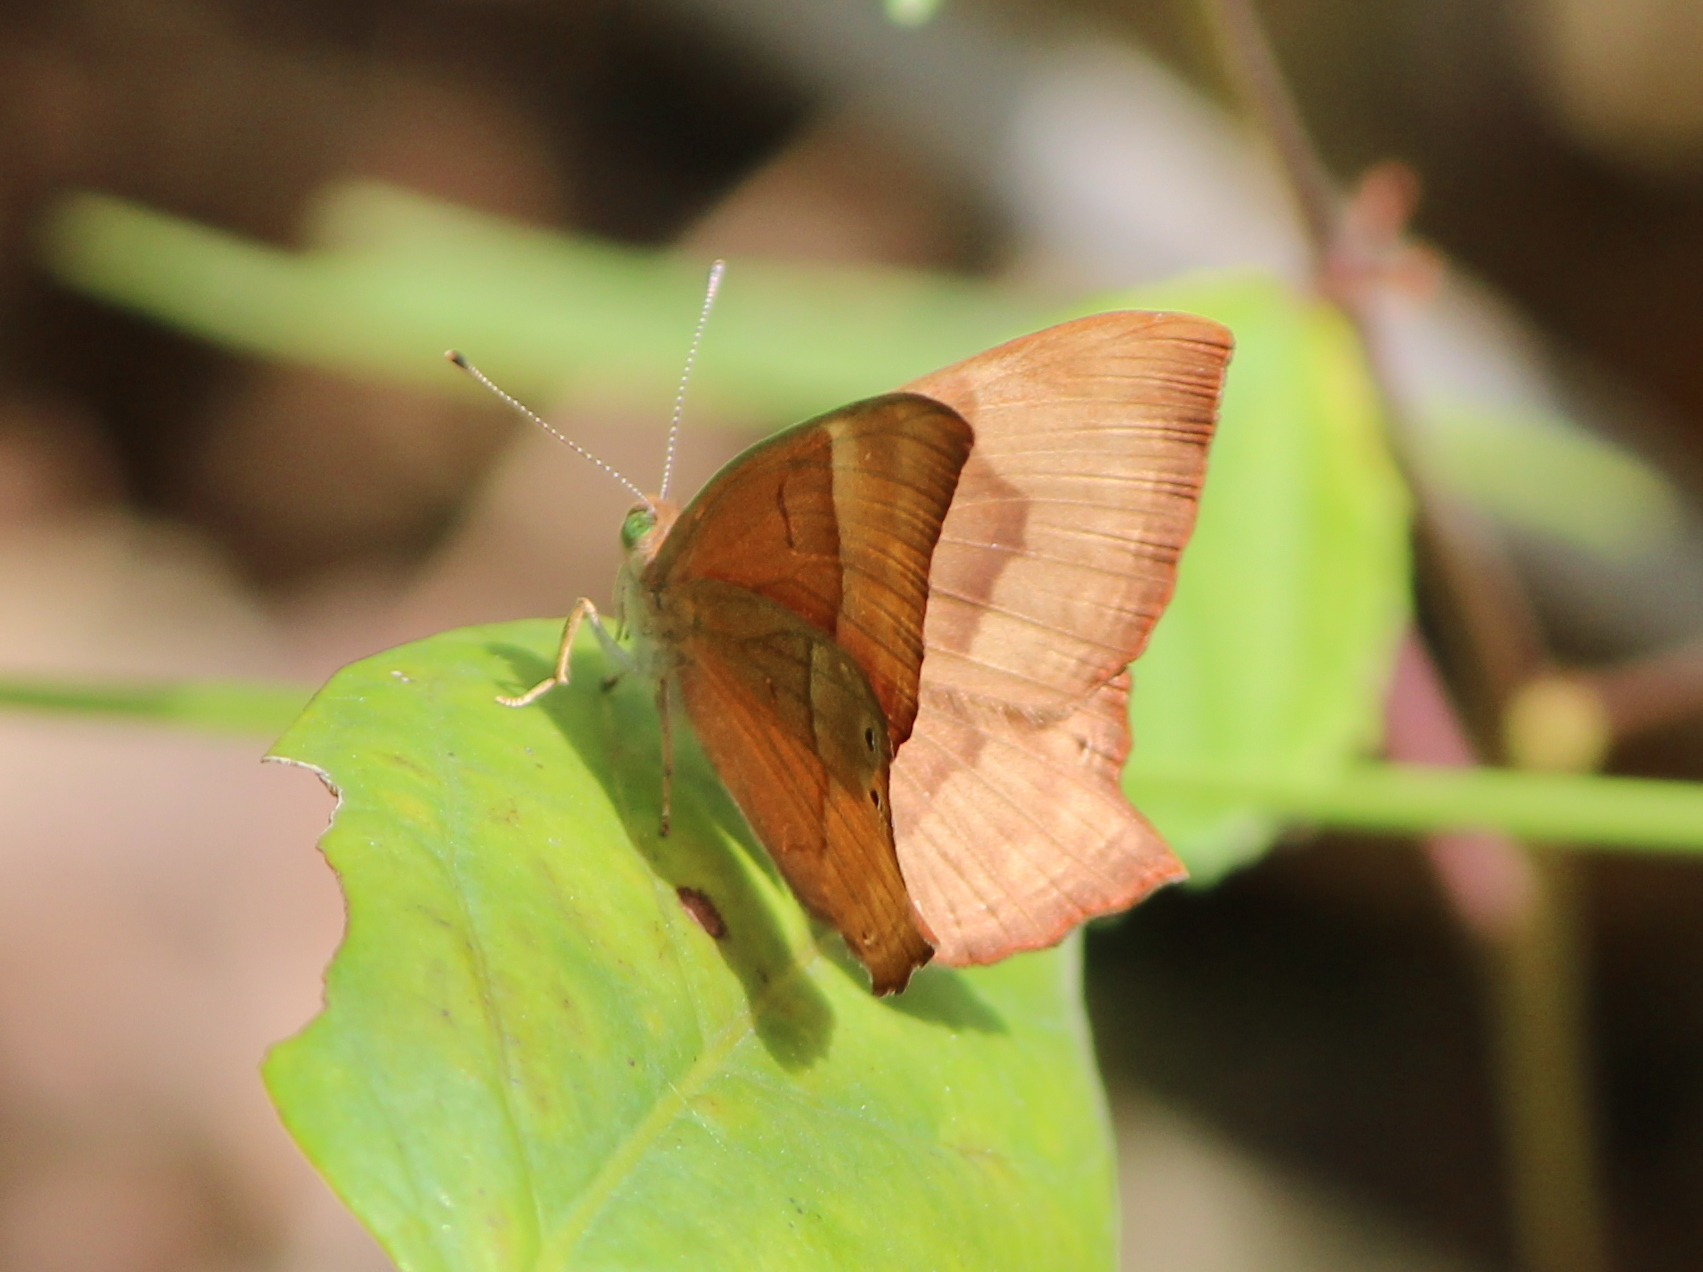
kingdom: Animalia
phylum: Arthropoda
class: Insecta
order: Lepidoptera
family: Lycaenidae
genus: Abisara
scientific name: Abisara bifasciata
